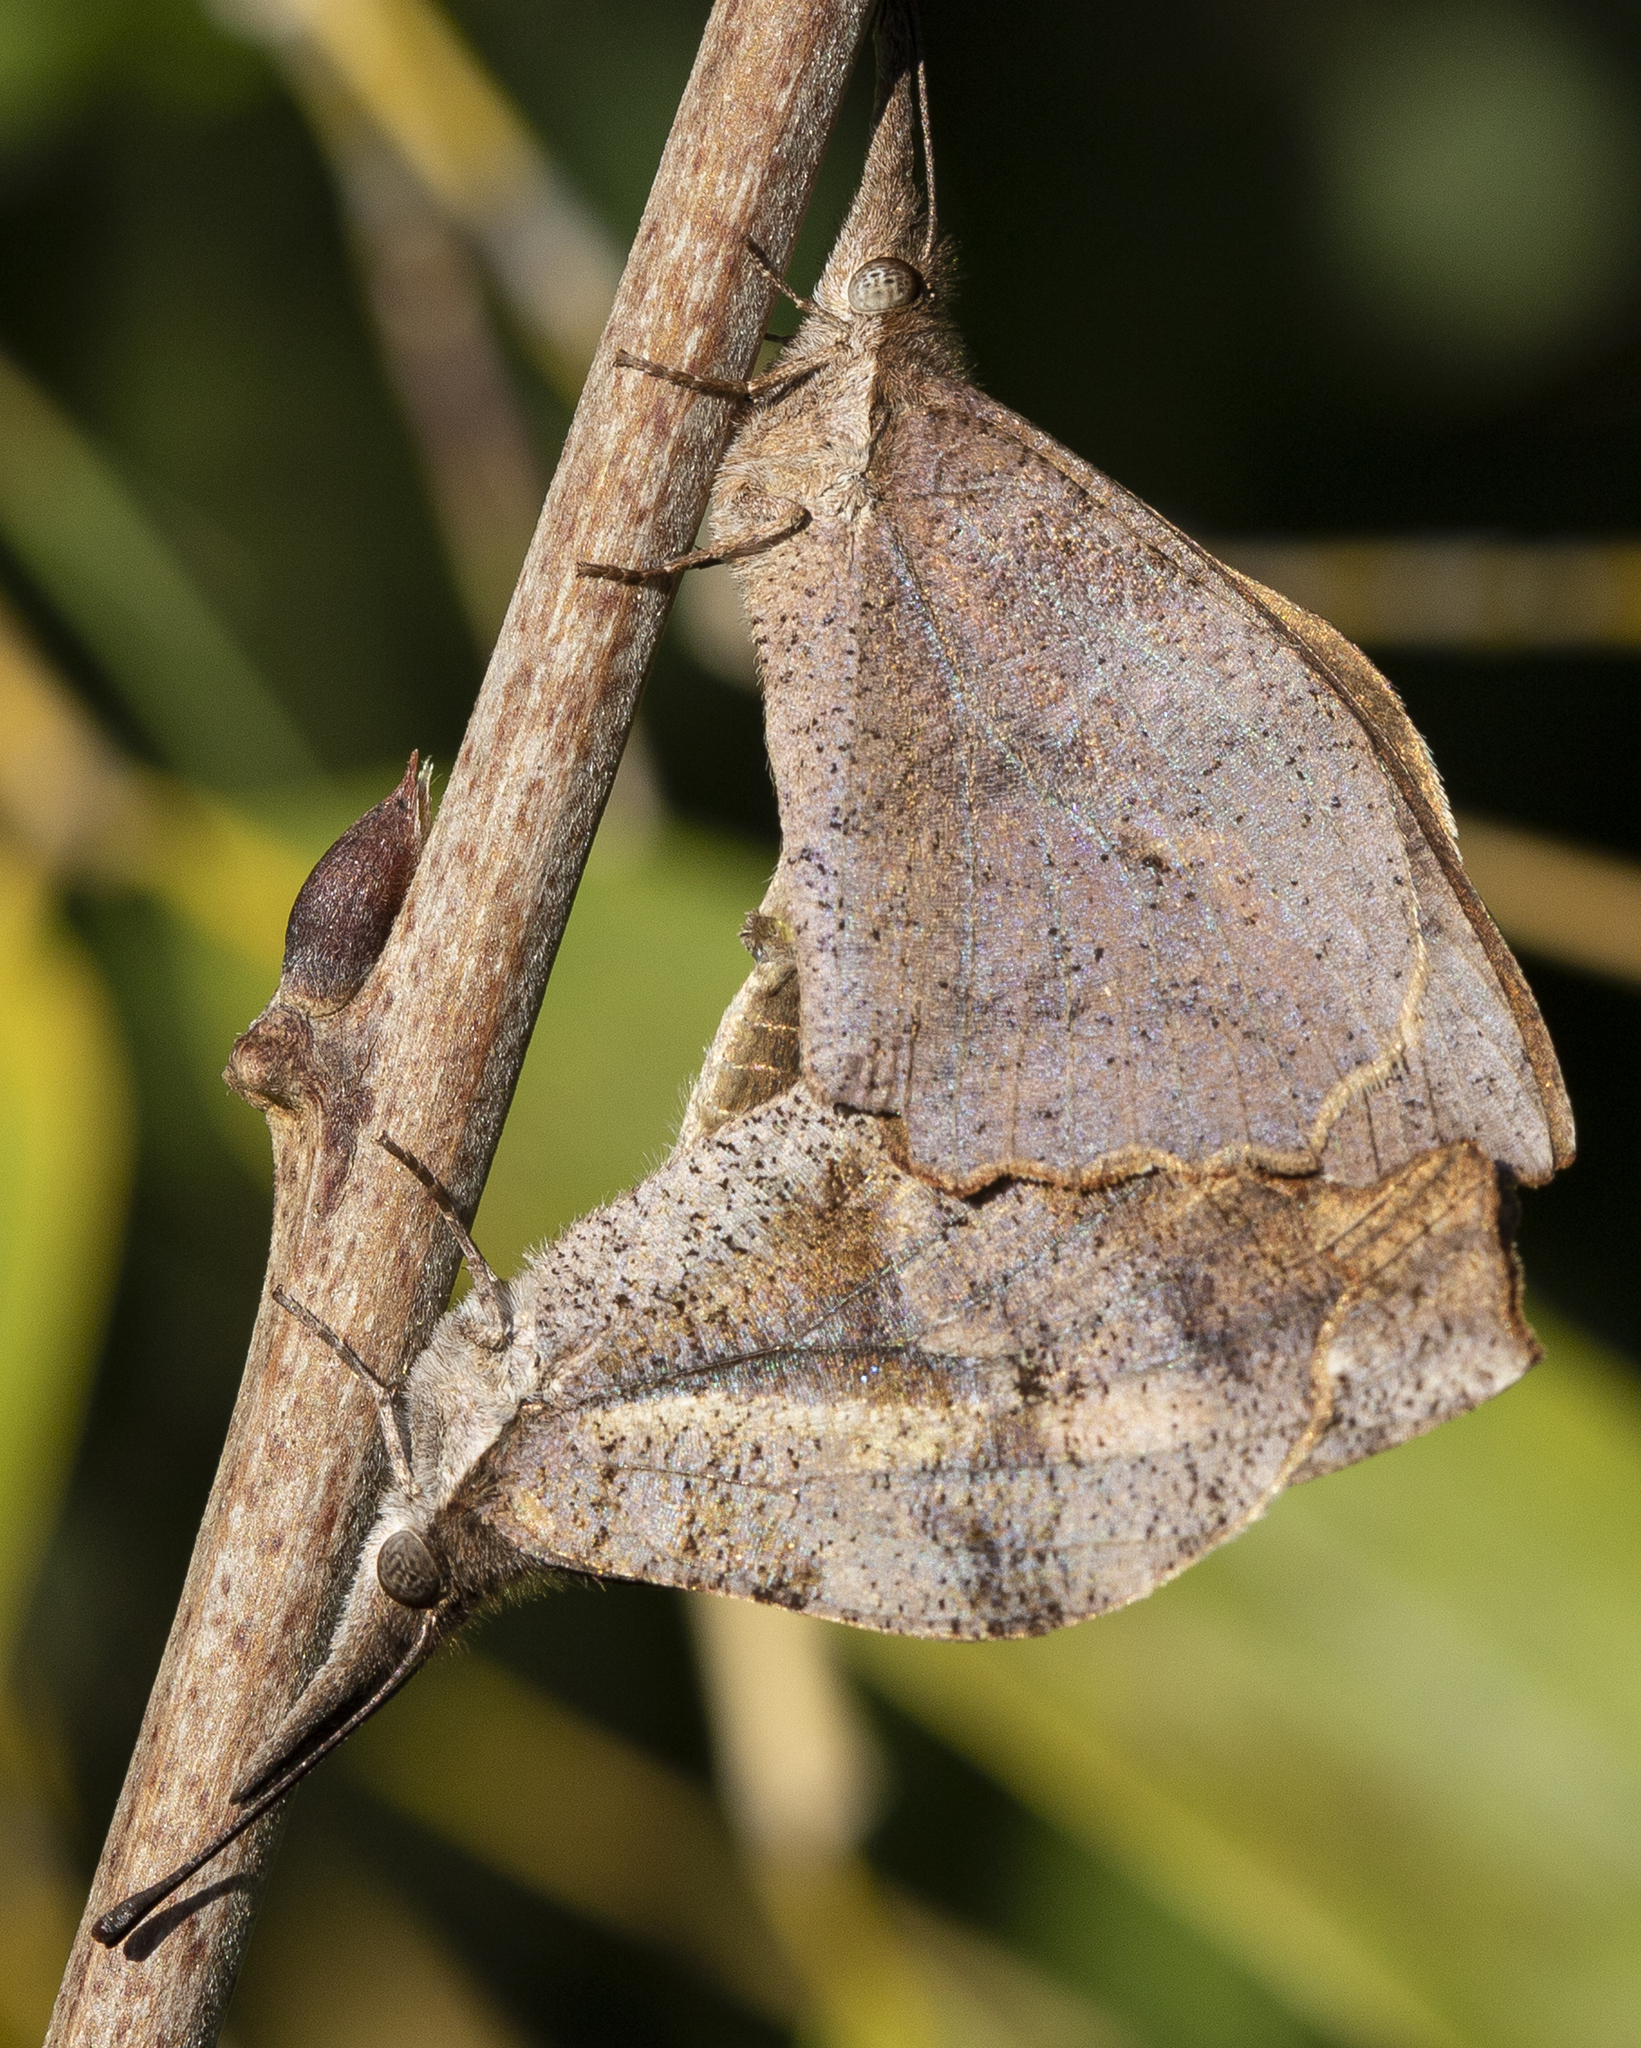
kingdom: Animalia
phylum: Arthropoda
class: Insecta
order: Lepidoptera
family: Nymphalidae
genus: Libytheana
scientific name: Libytheana carinenta
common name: American snout
